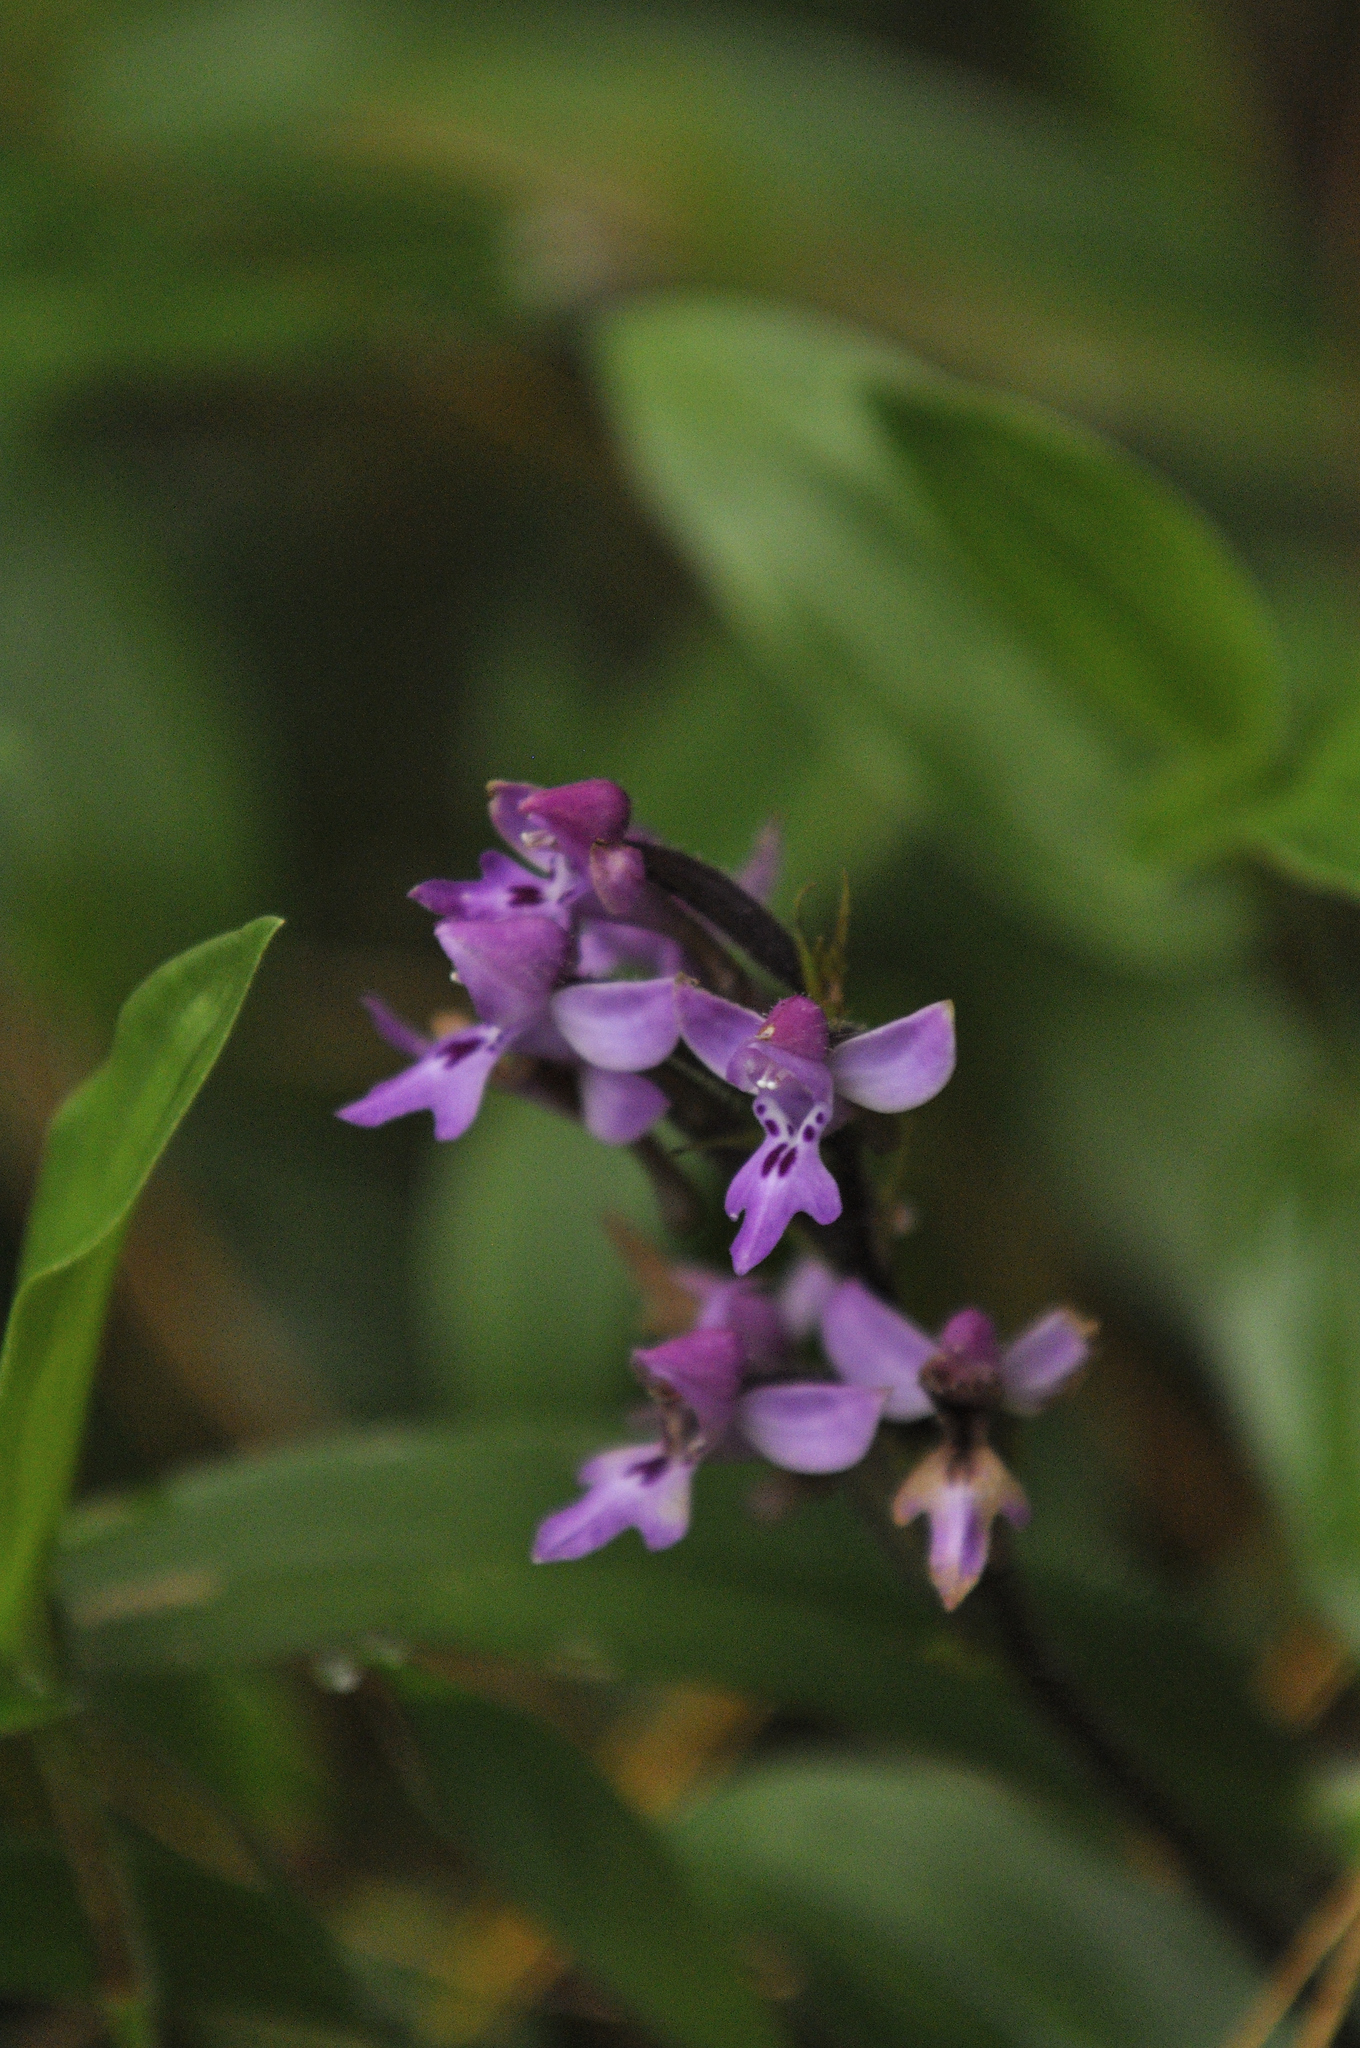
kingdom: Plantae
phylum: Tracheophyta
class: Liliopsida
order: Asparagales
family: Orchidaceae
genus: Cynorkis
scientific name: Cynorkis kassneriana
